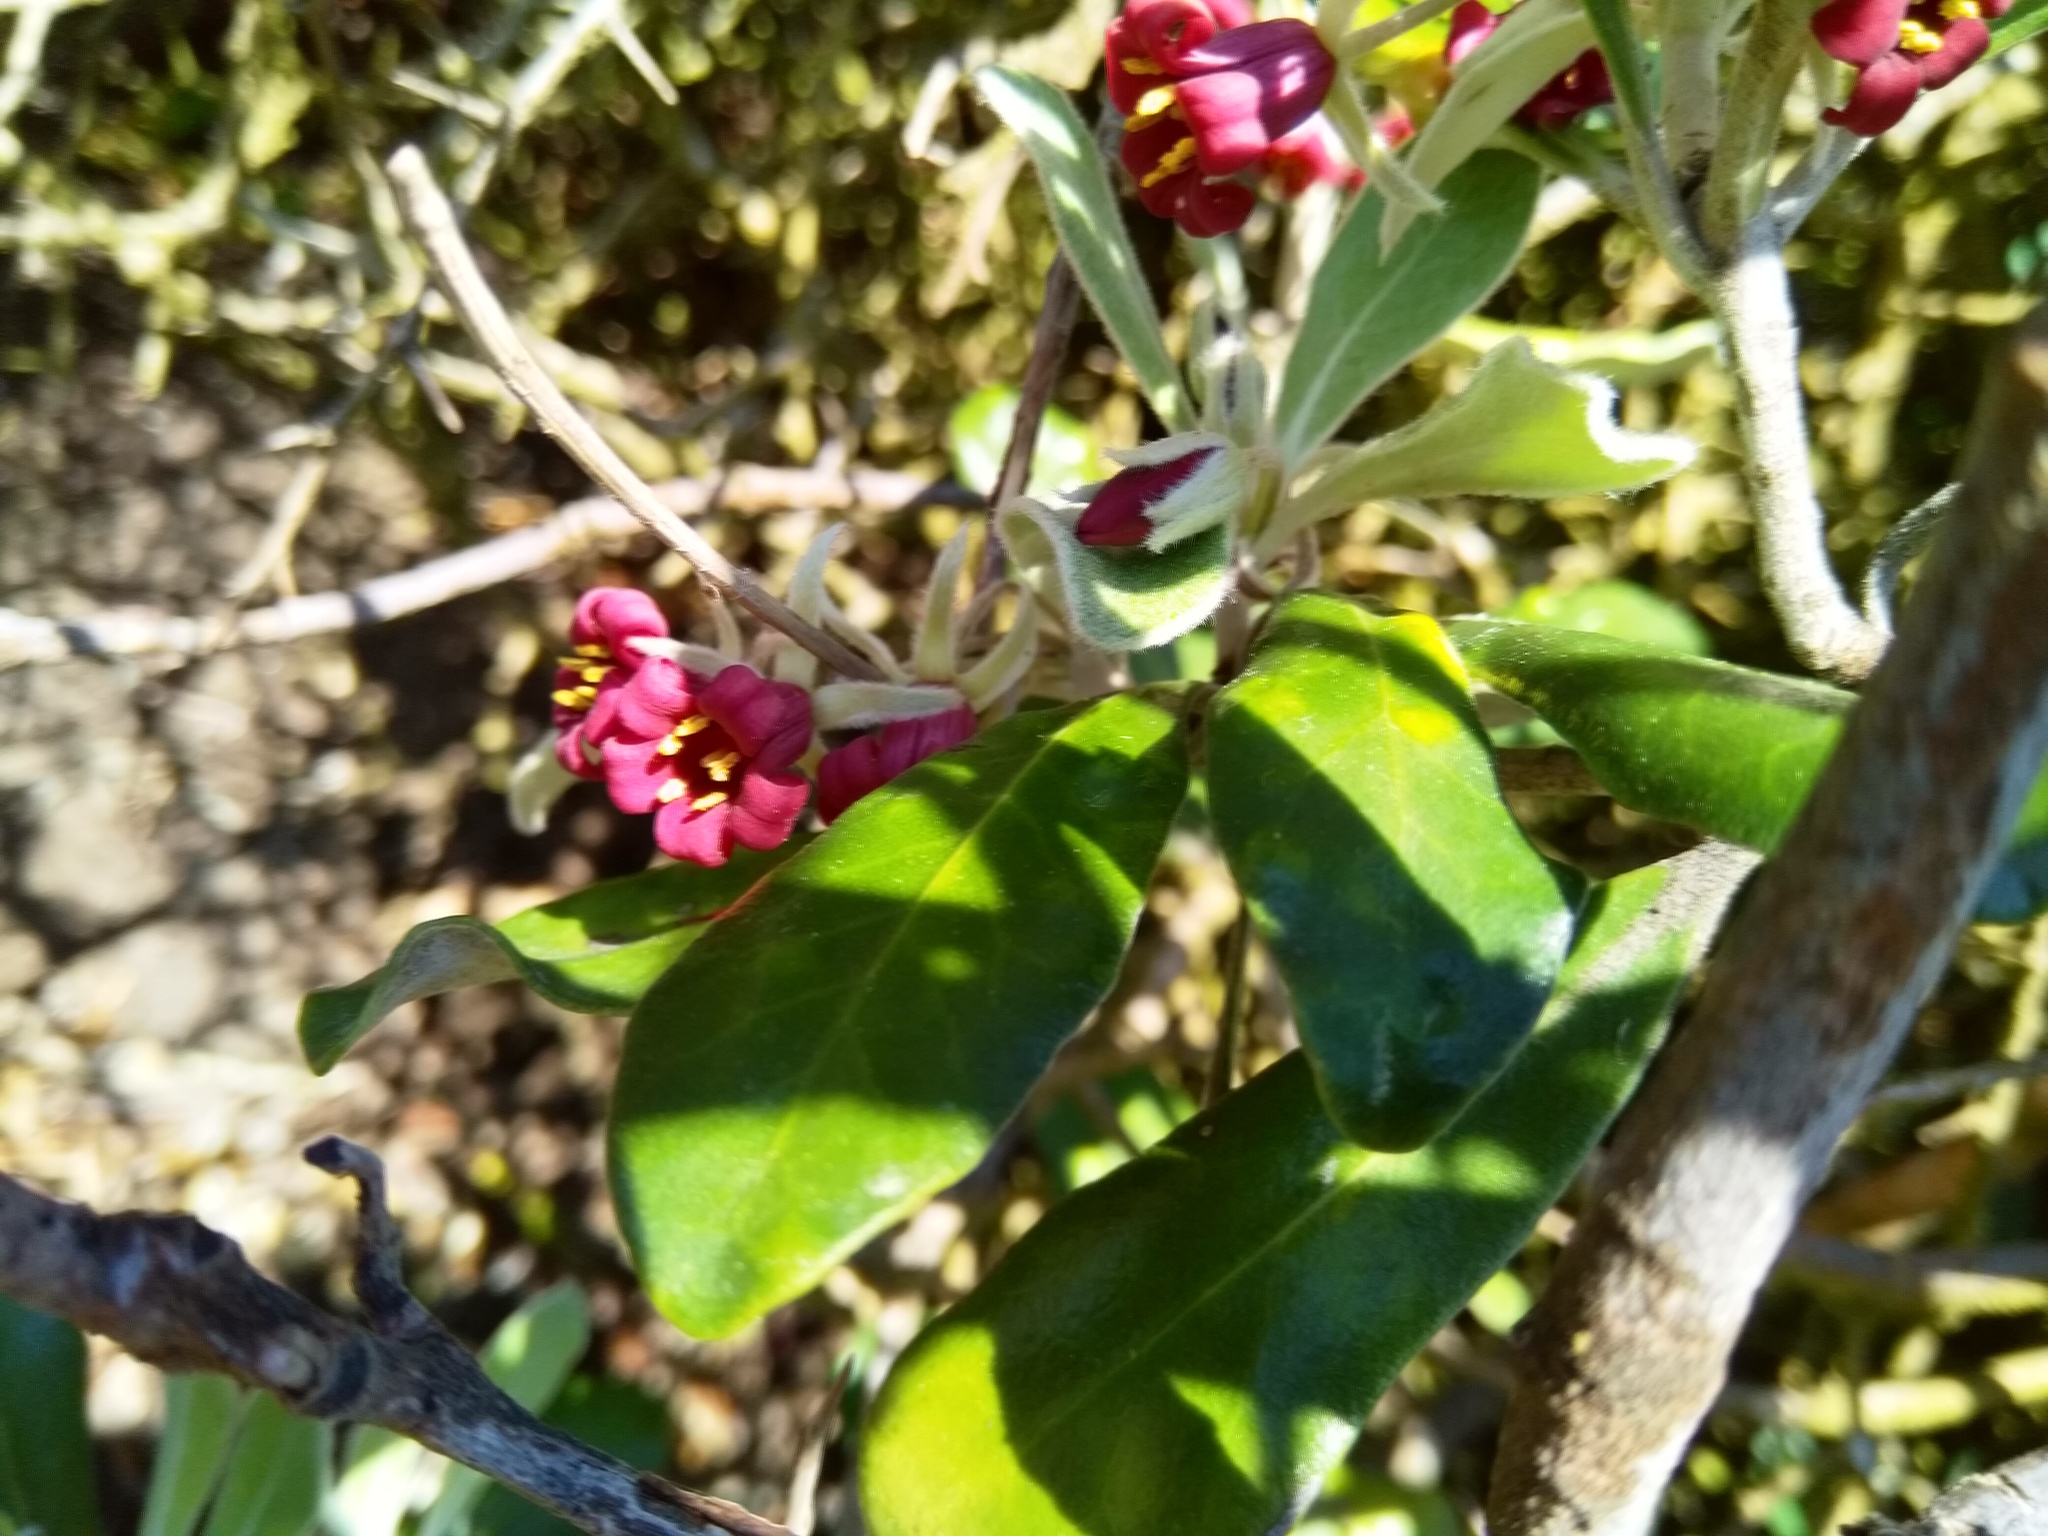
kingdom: Plantae
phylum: Tracheophyta
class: Magnoliopsida
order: Apiales
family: Pittosporaceae
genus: Pittosporum
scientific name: Pittosporum crassifolium
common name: Karo
